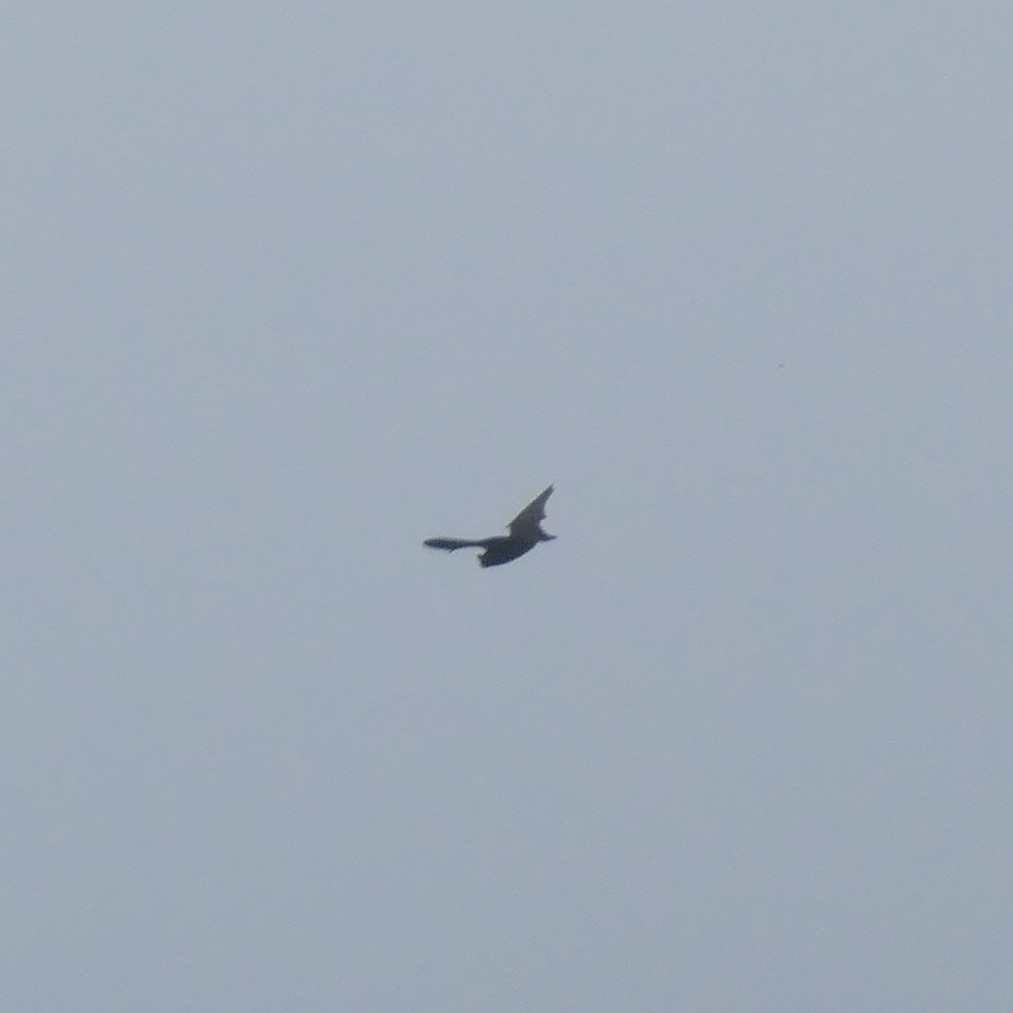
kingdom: Animalia
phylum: Chordata
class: Mammalia
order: Chiroptera
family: Vespertilionidae
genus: Nyctalus
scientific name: Nyctalus azoreum
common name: Azores noctule
